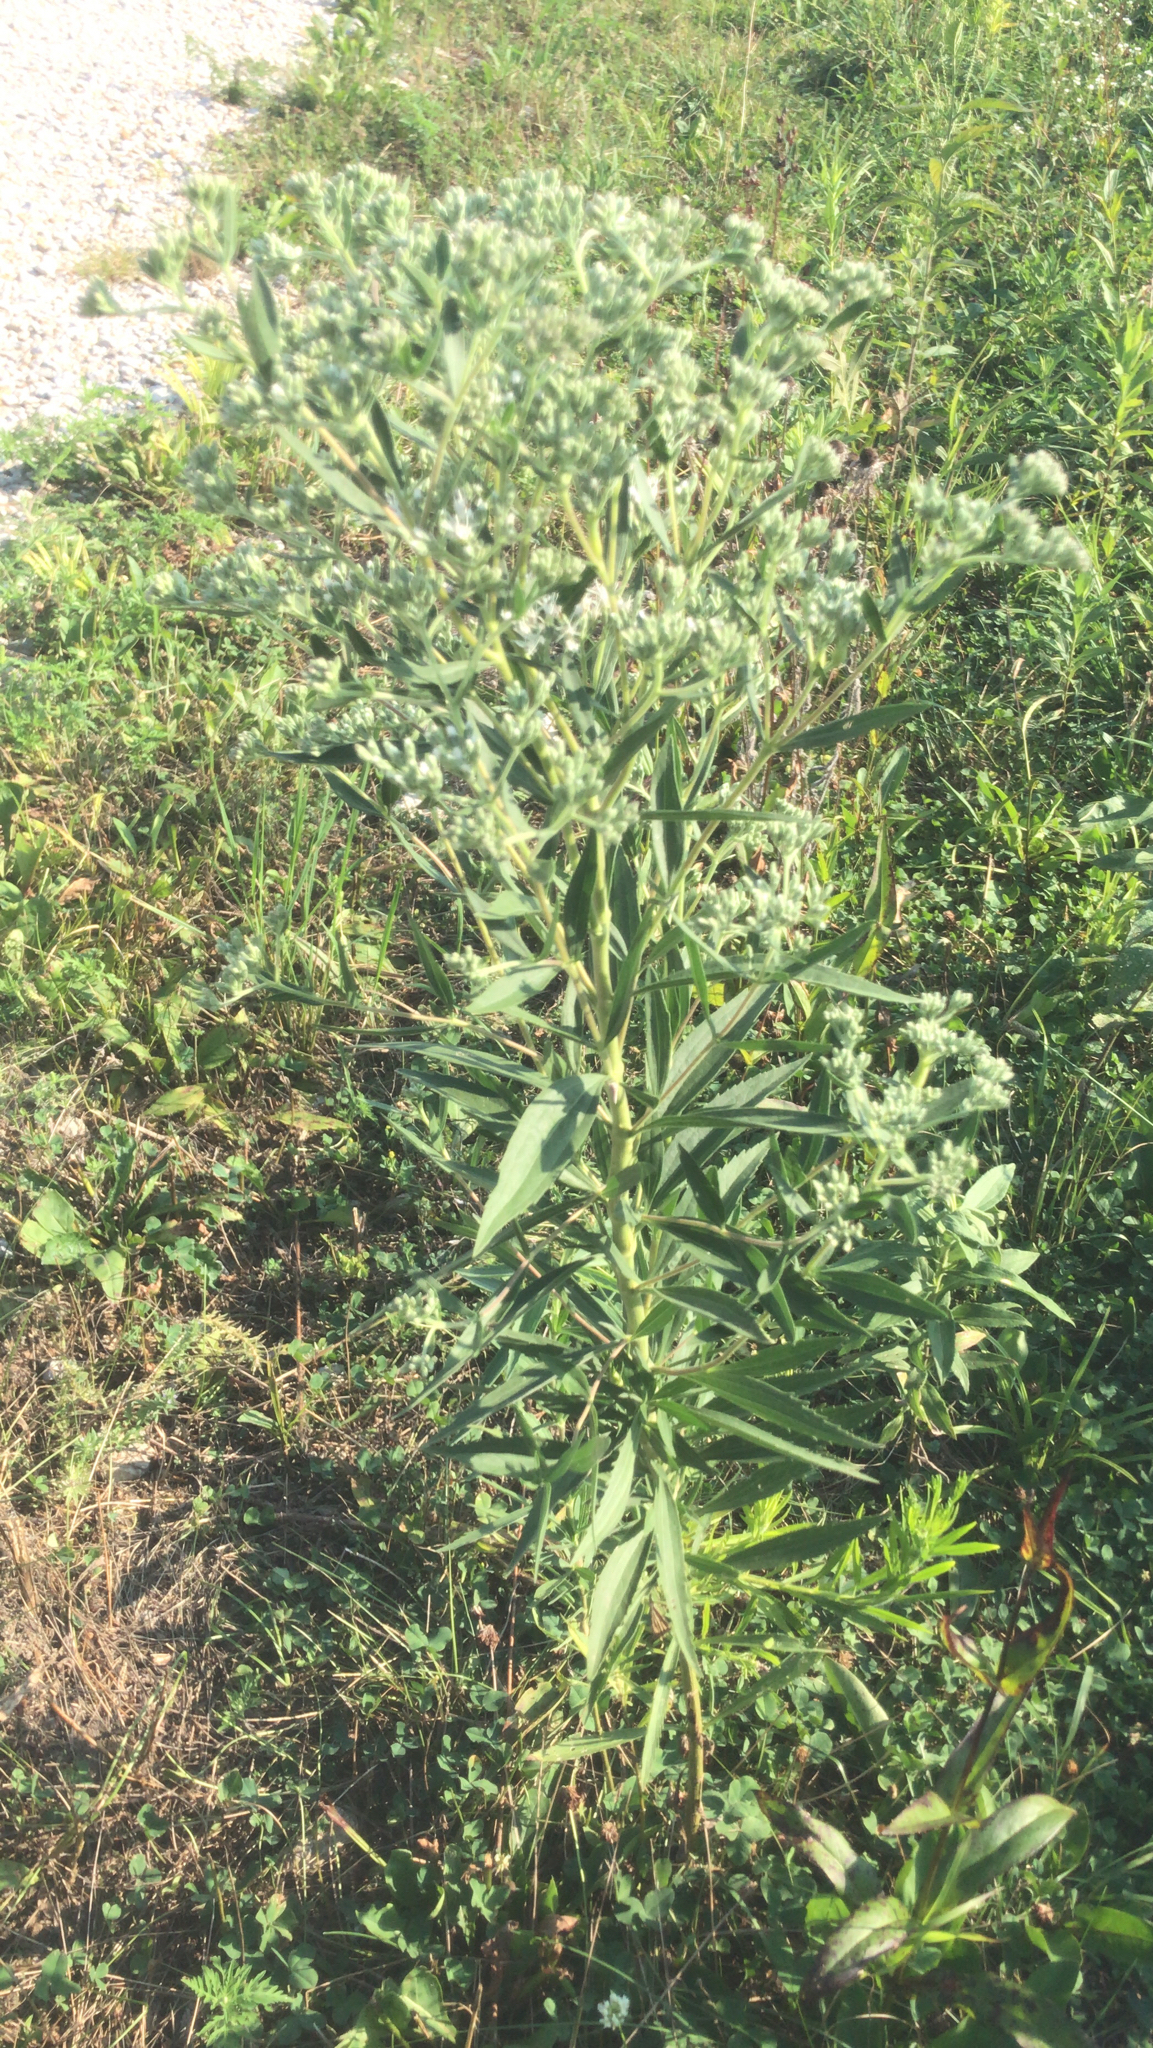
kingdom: Plantae
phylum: Tracheophyta
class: Magnoliopsida
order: Asterales
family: Asteraceae
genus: Eupatorium
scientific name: Eupatorium altissimum
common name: Tall thoroughwort
